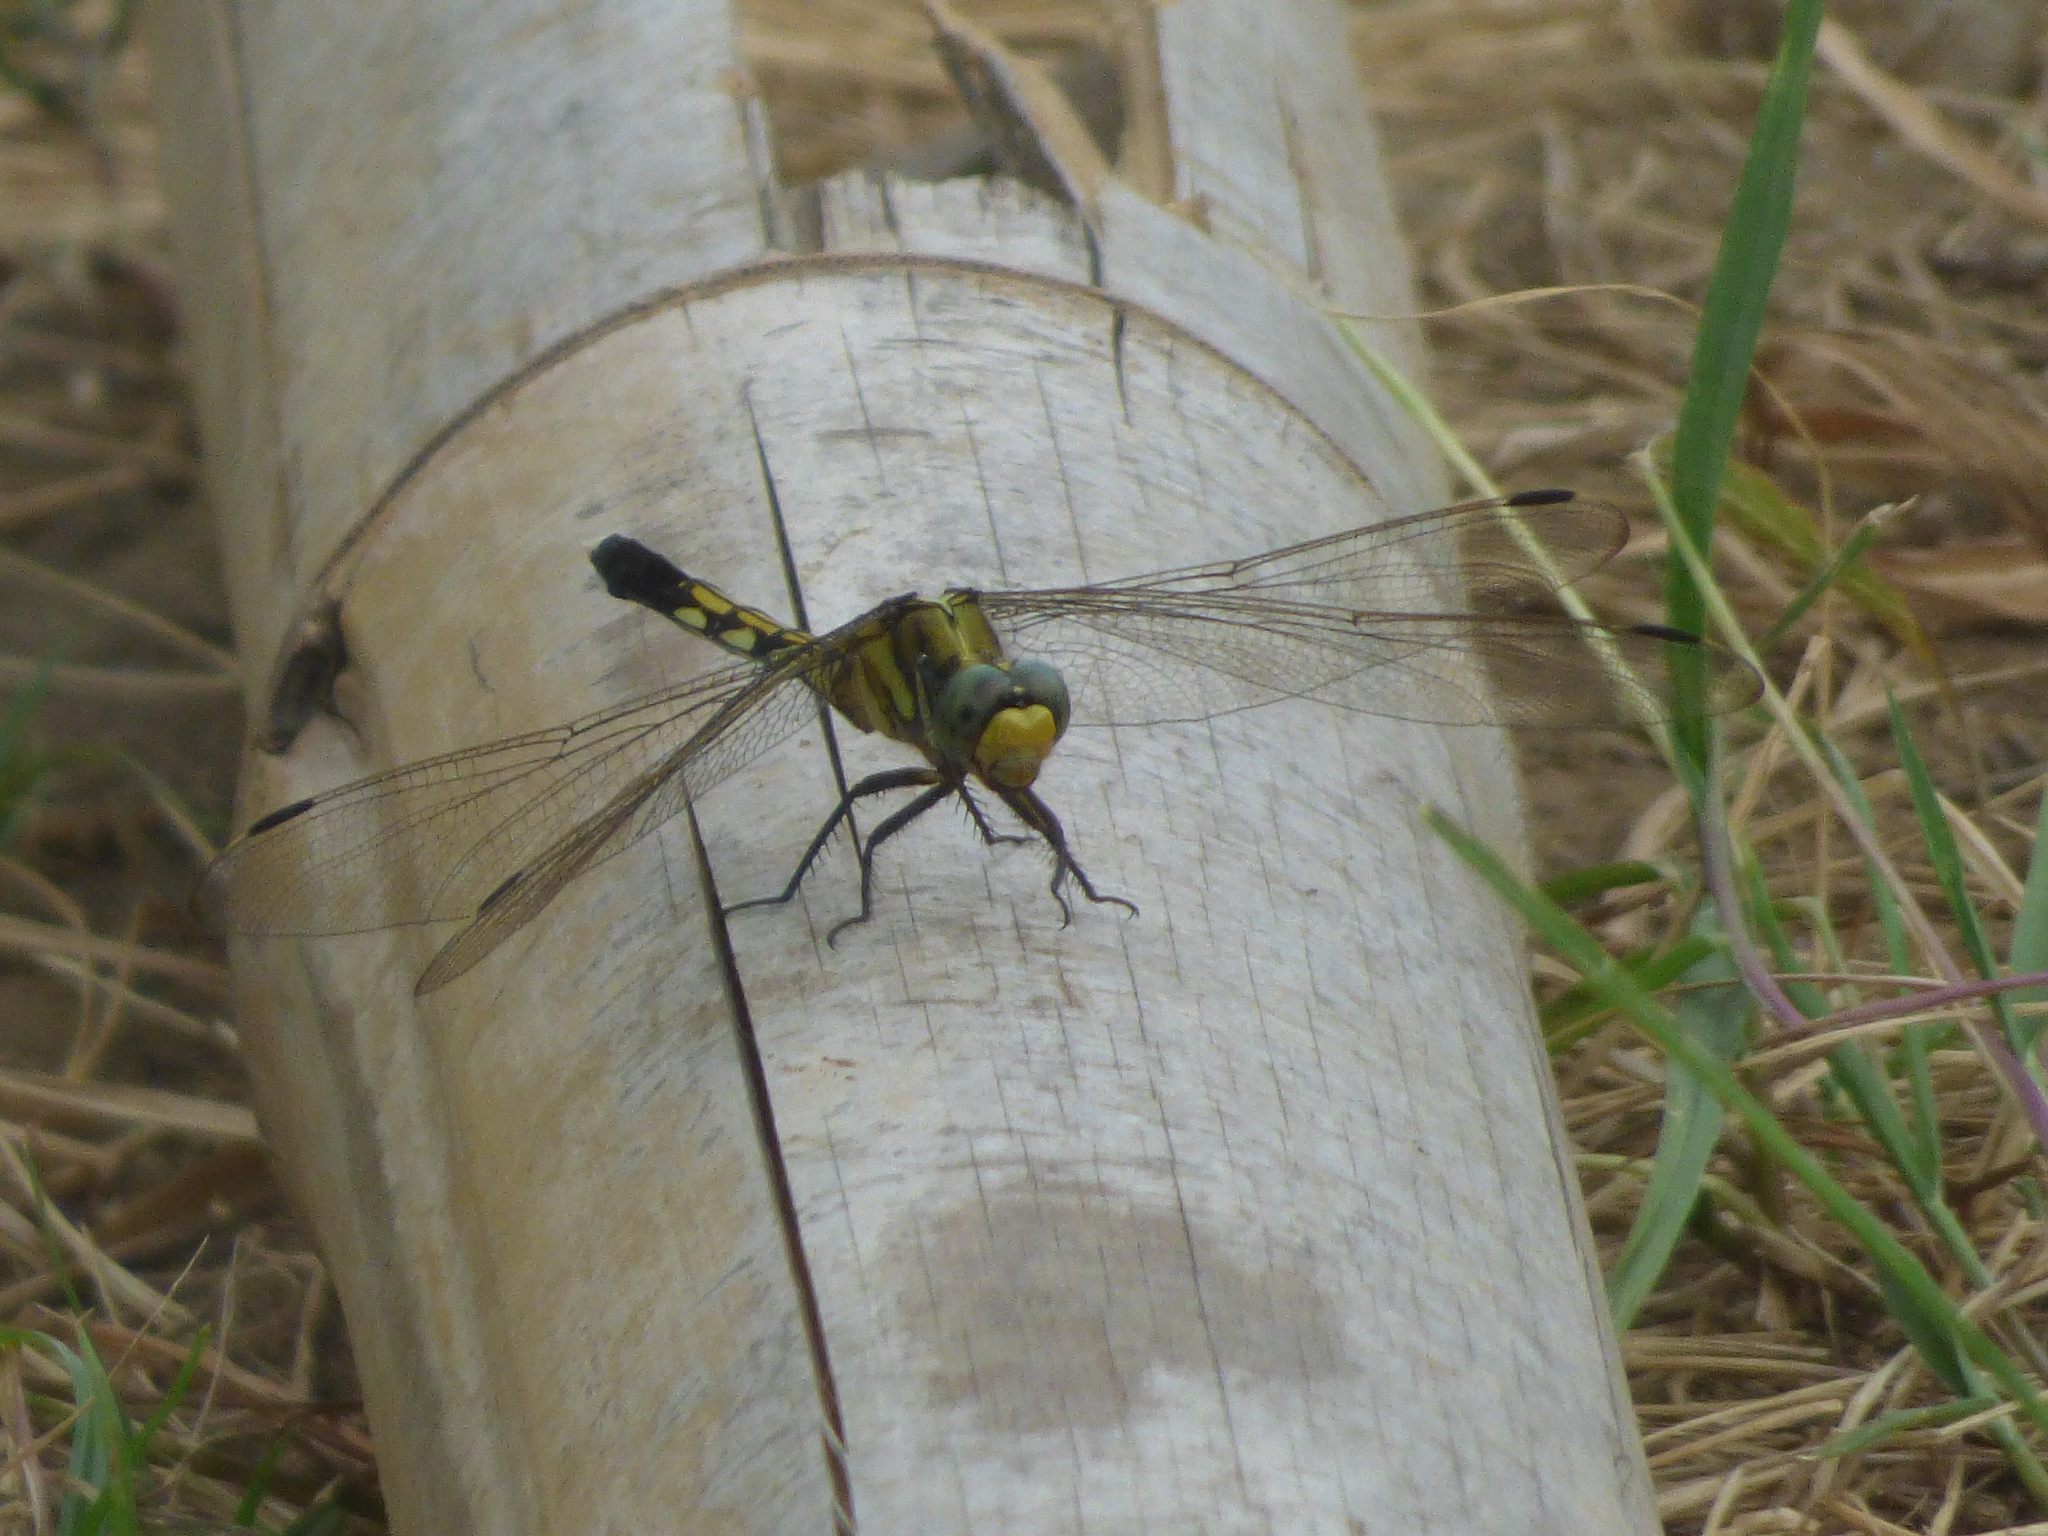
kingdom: Animalia
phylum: Arthropoda
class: Insecta
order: Odonata
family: Libellulidae
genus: Orthetrum
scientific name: Orthetrum albistylum
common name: White-tailed skimmer
